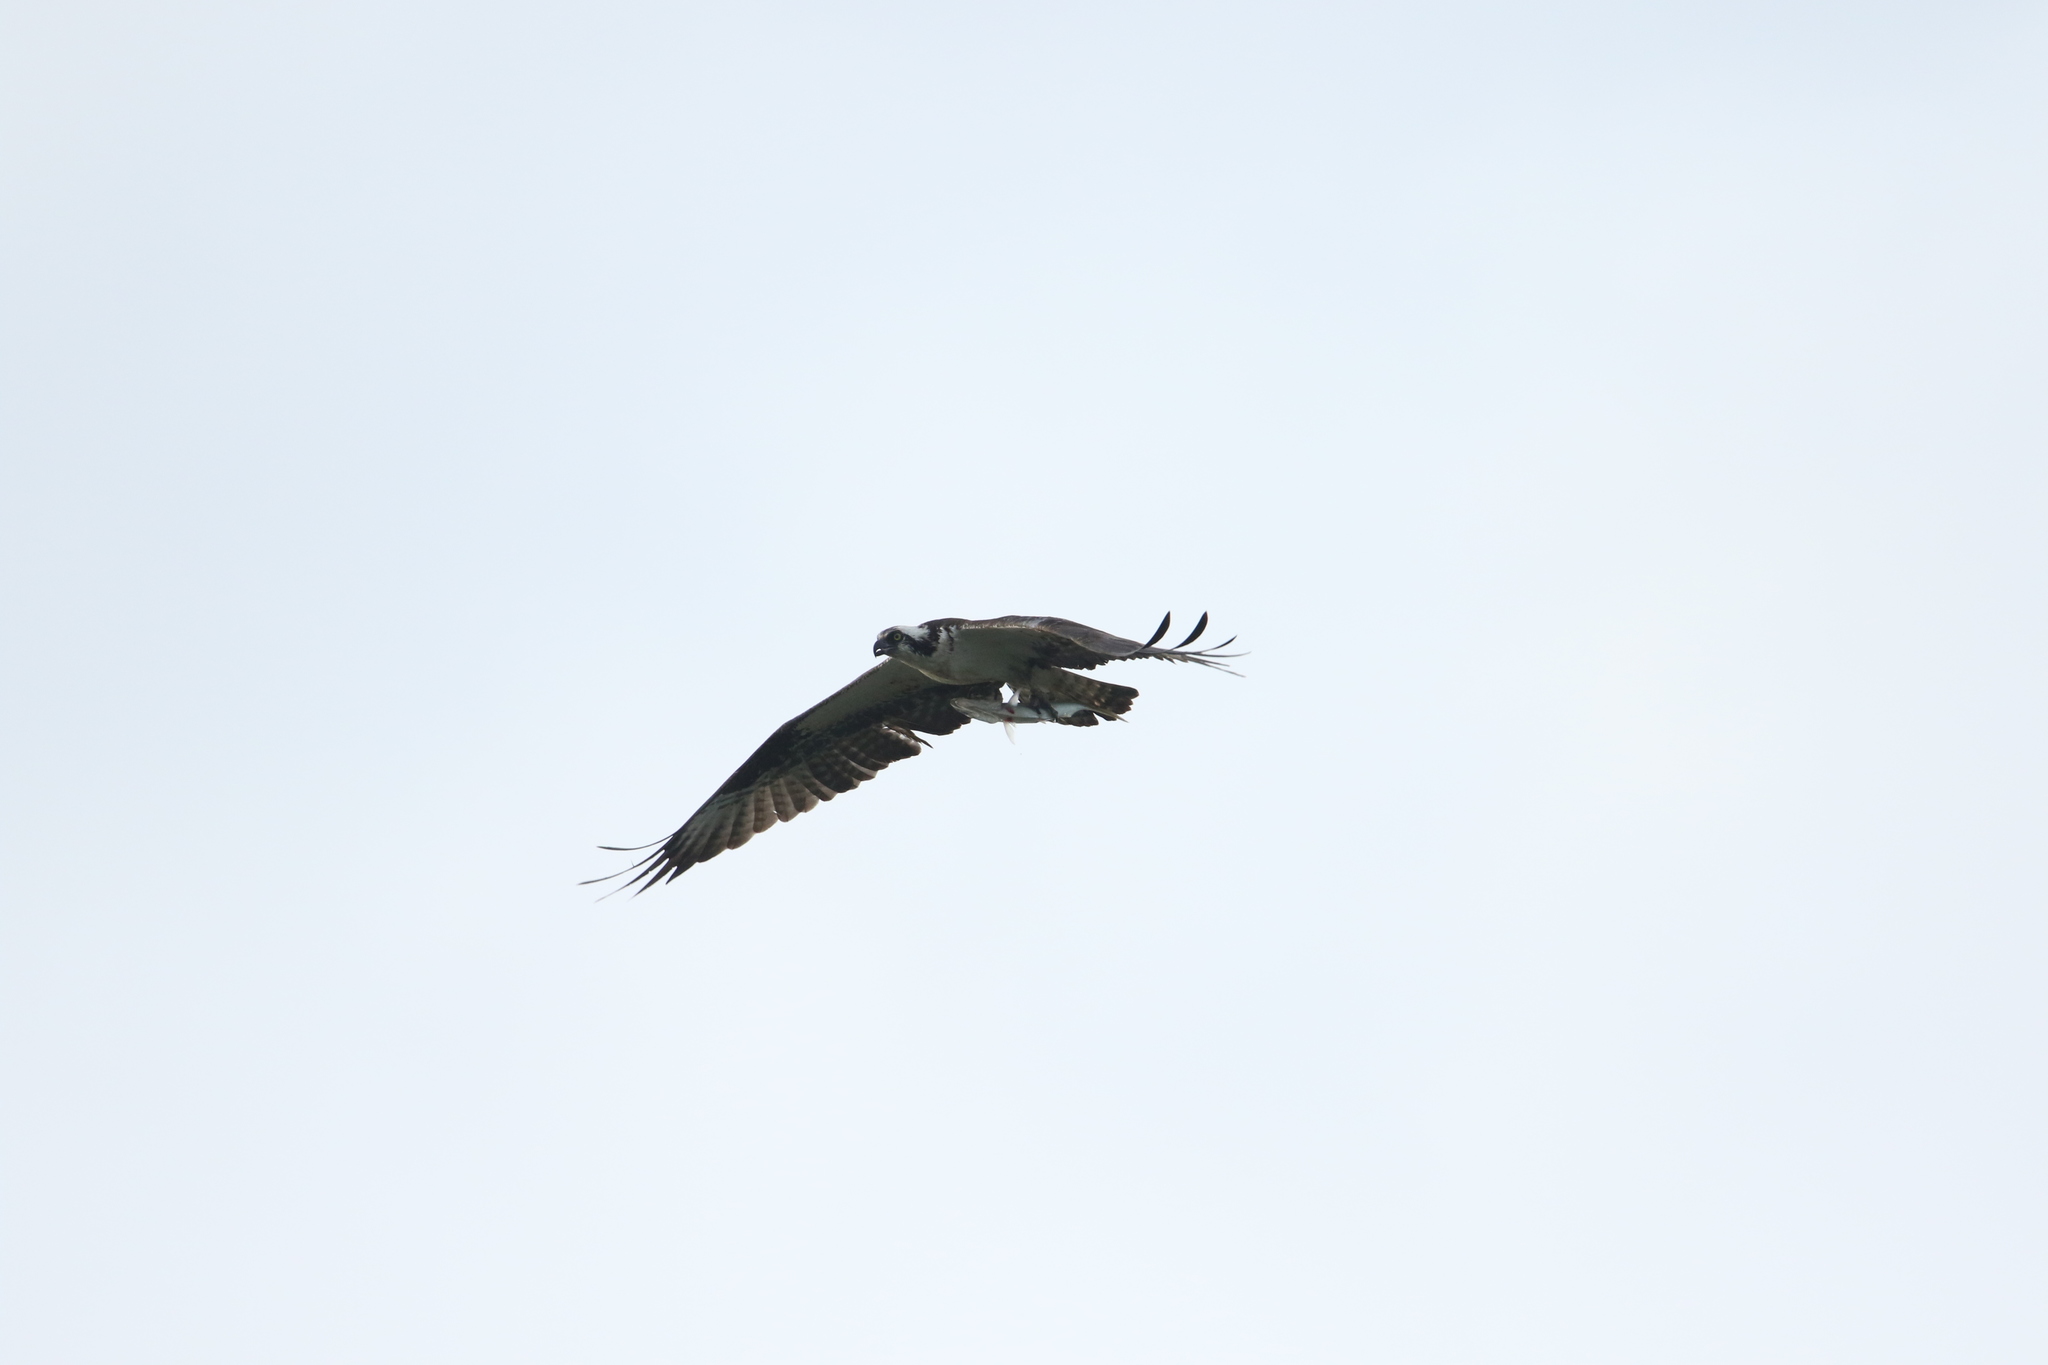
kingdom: Animalia
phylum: Chordata
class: Aves
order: Accipitriformes
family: Pandionidae
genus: Pandion
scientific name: Pandion haliaetus
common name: Osprey
